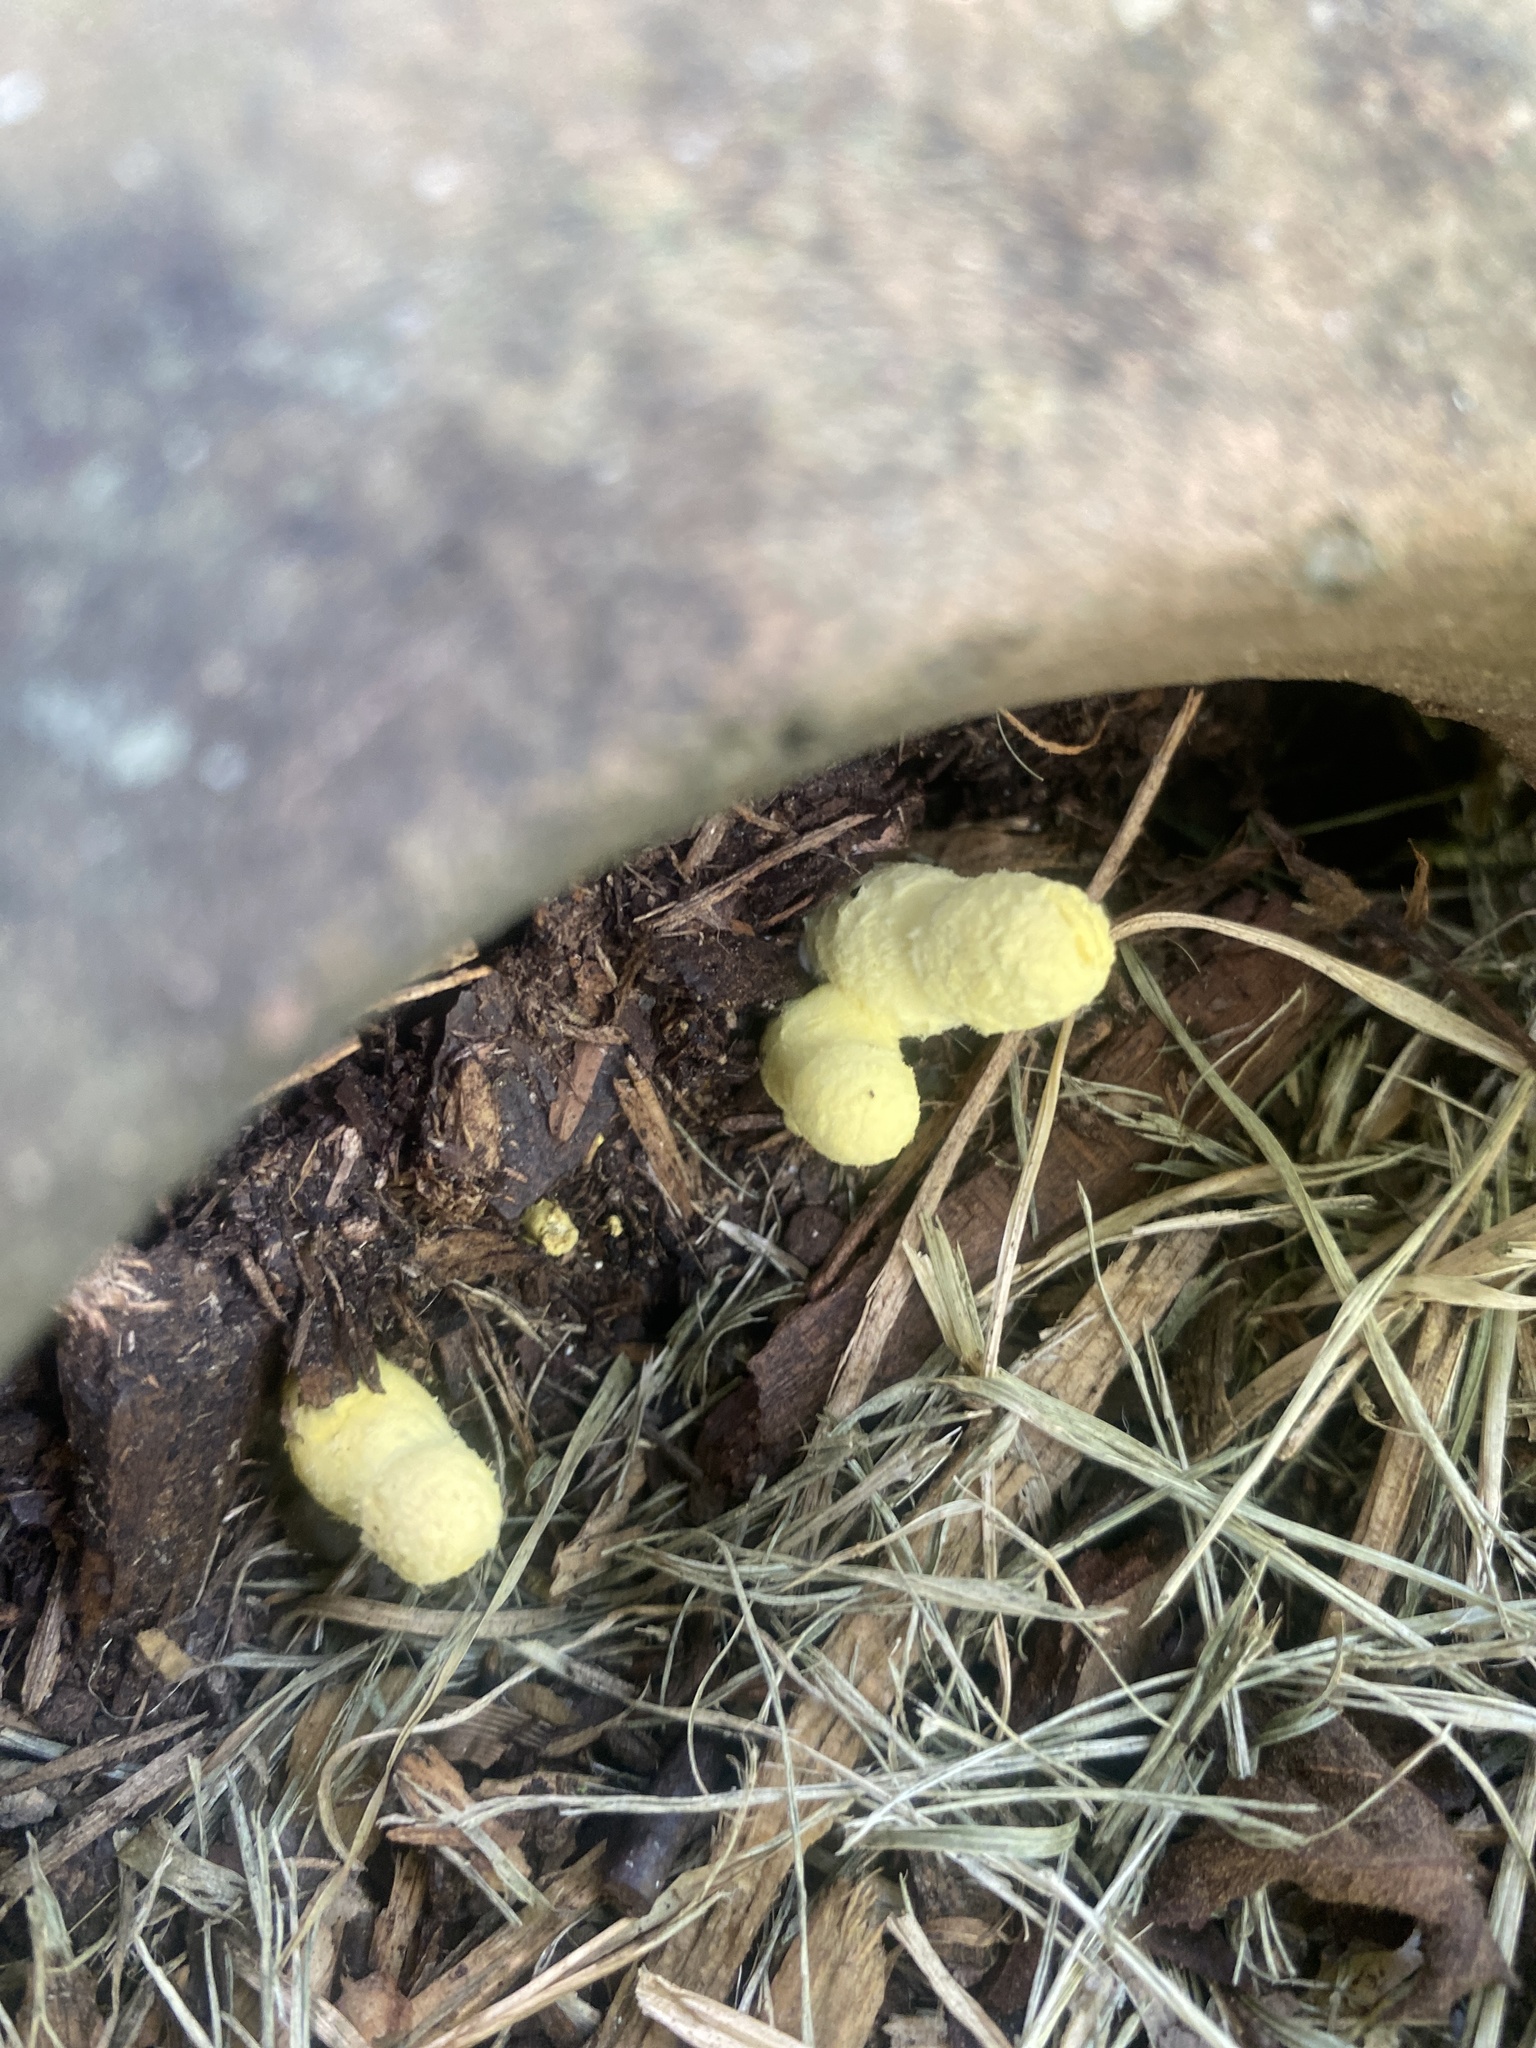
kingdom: Fungi
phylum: Basidiomycota
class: Agaricomycetes
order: Agaricales
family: Agaricaceae
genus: Leucocoprinus
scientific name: Leucocoprinus birnbaumii
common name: Plantpot dapperling
